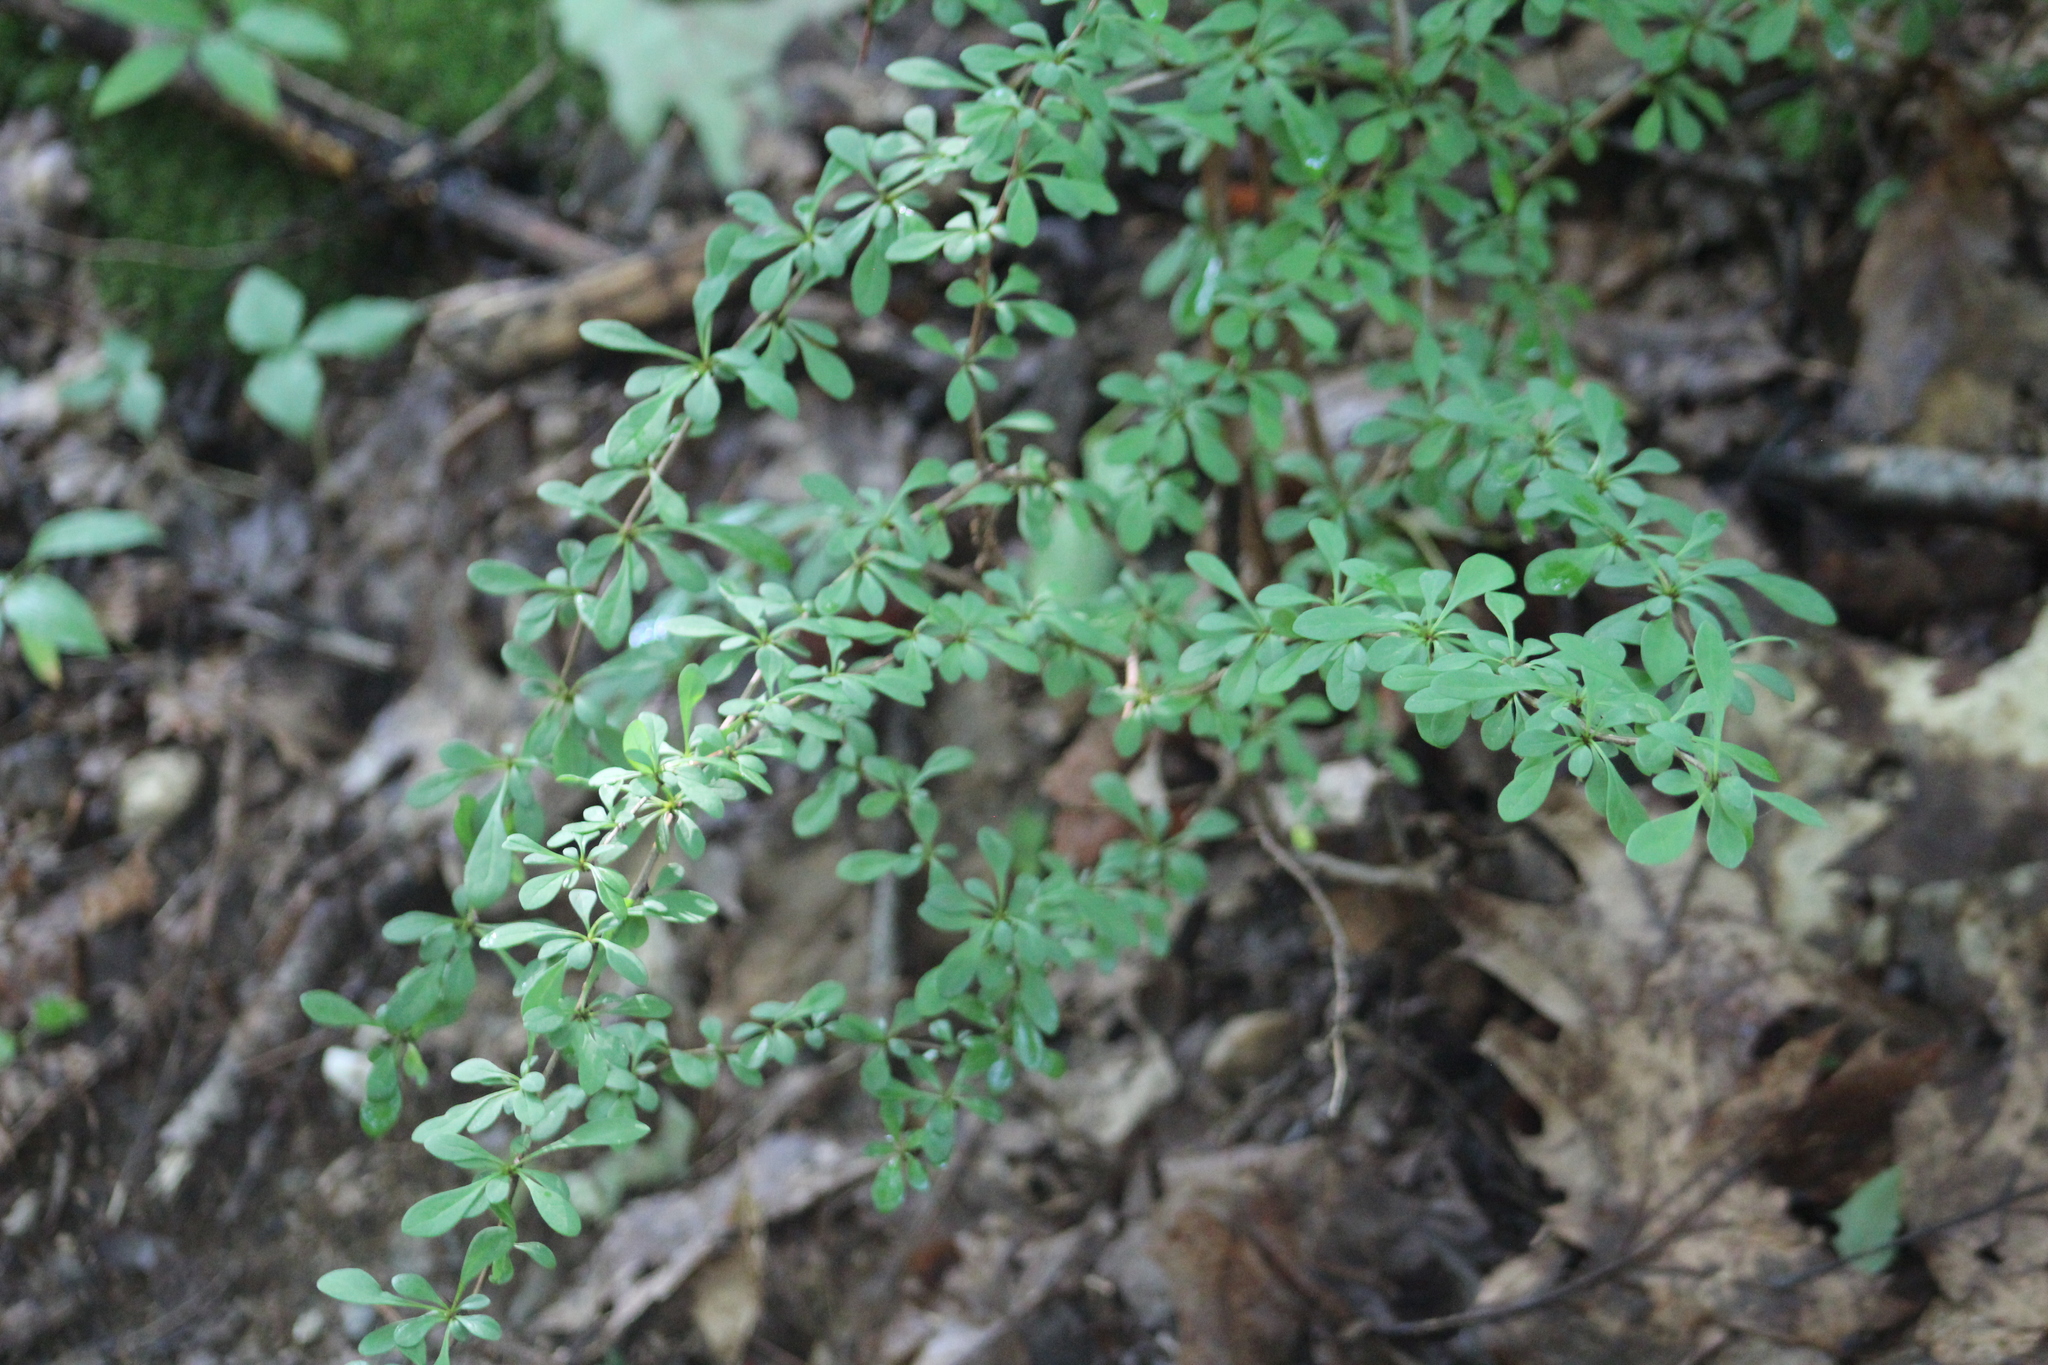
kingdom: Plantae
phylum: Tracheophyta
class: Magnoliopsida
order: Ranunculales
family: Berberidaceae
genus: Berberis
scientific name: Berberis thunbergii
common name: Japanese barberry
